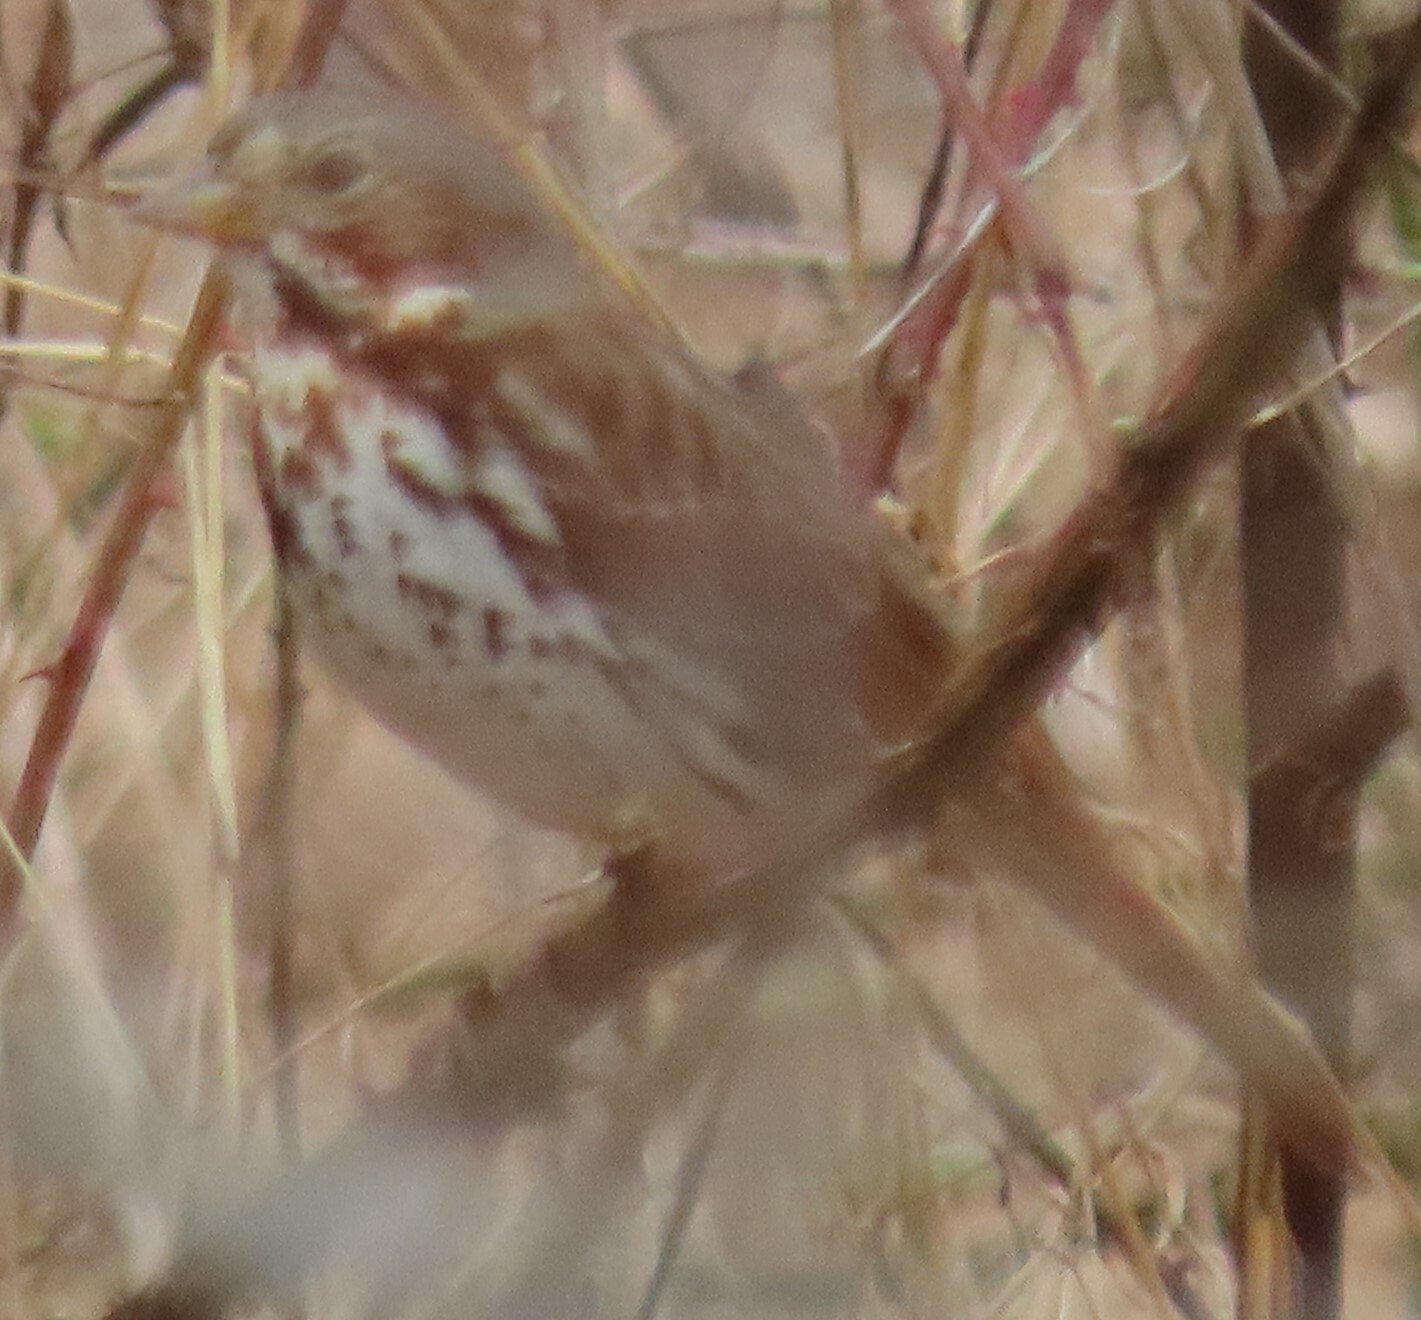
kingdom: Animalia
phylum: Chordata
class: Aves
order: Passeriformes
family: Passerellidae
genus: Zonotrichia
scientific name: Zonotrichia albicollis
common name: White-throated sparrow
